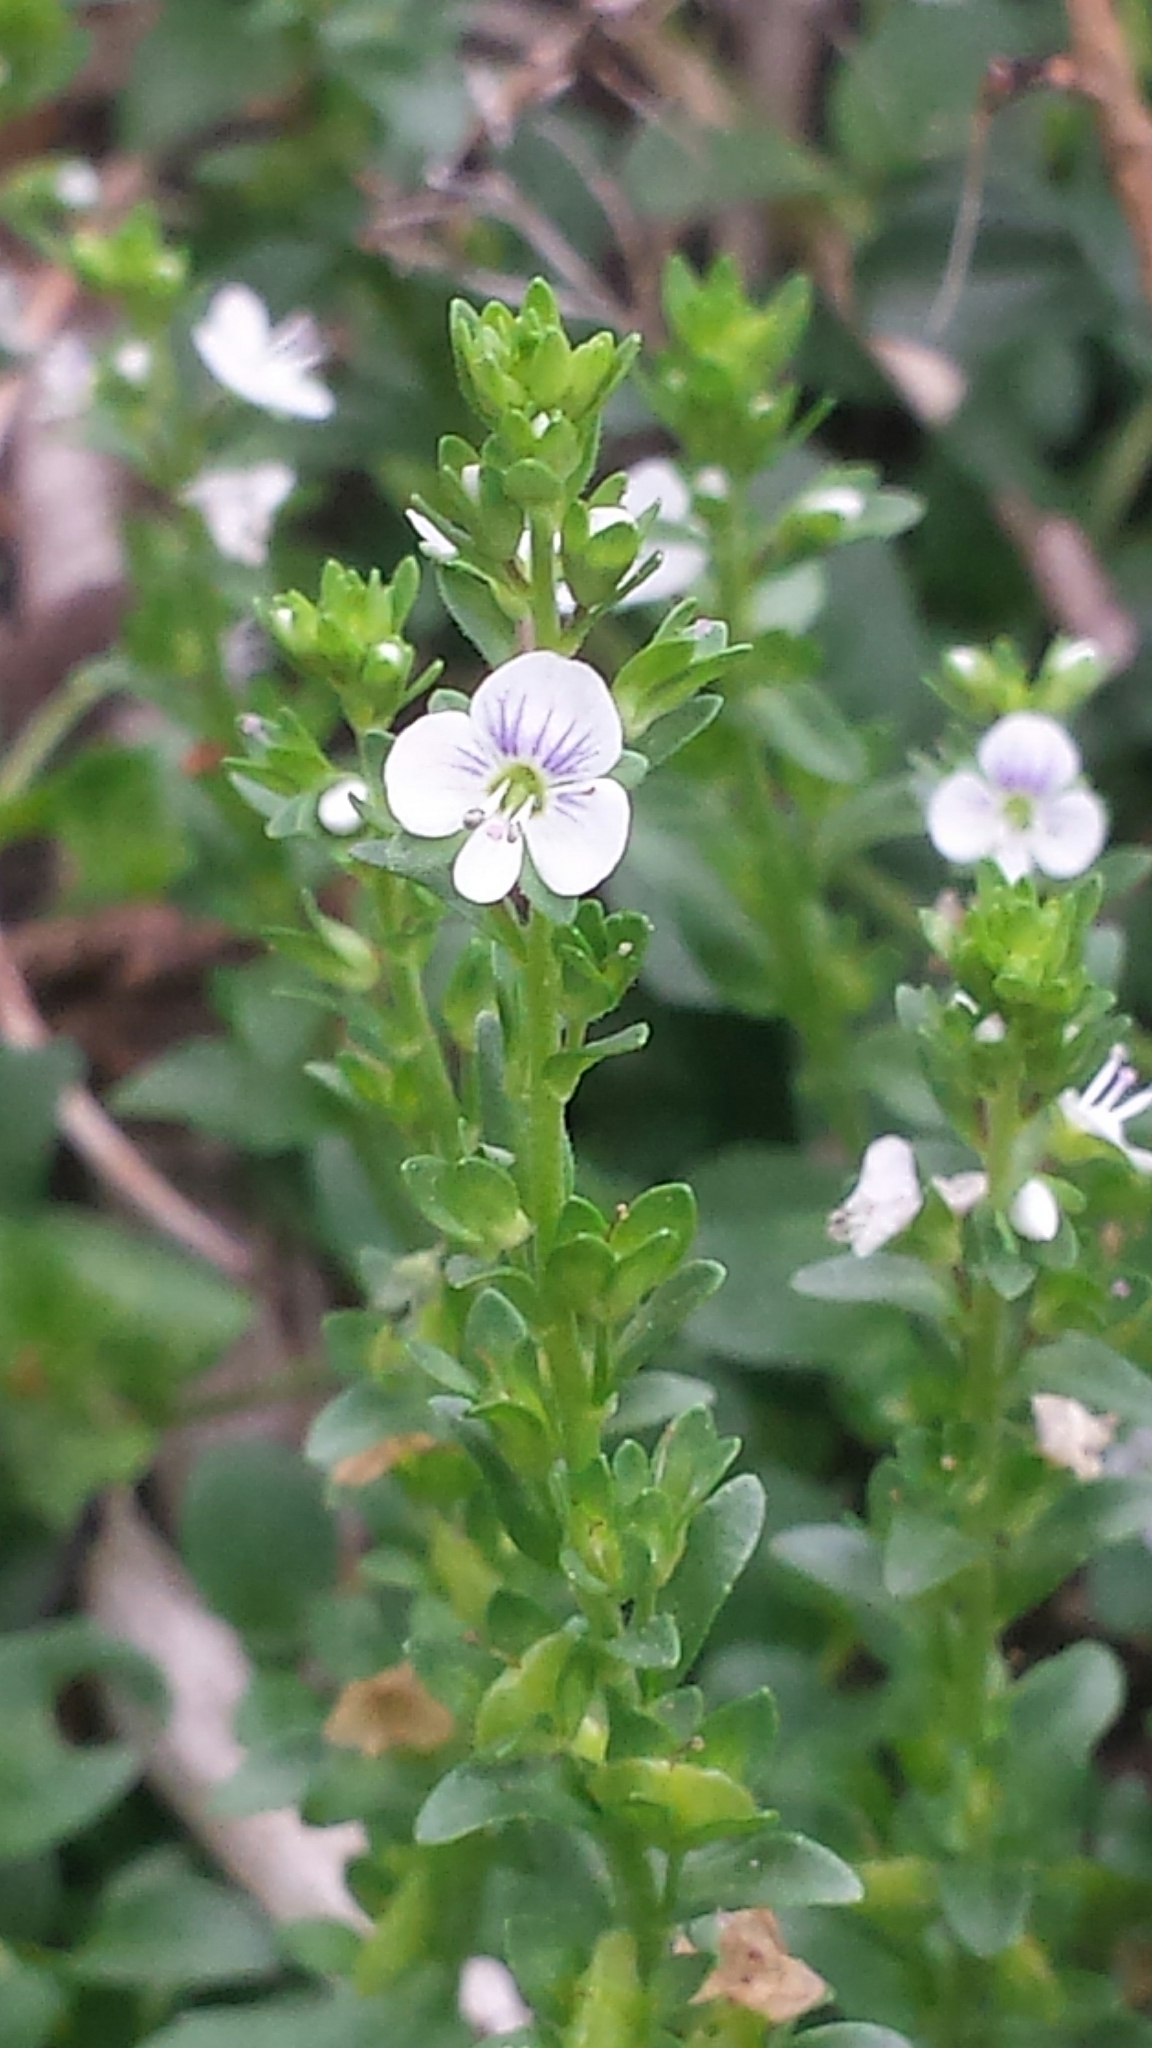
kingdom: Plantae
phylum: Tracheophyta
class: Magnoliopsida
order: Lamiales
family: Plantaginaceae
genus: Veronica
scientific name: Veronica serpyllifolia
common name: Thyme-leaved speedwell
